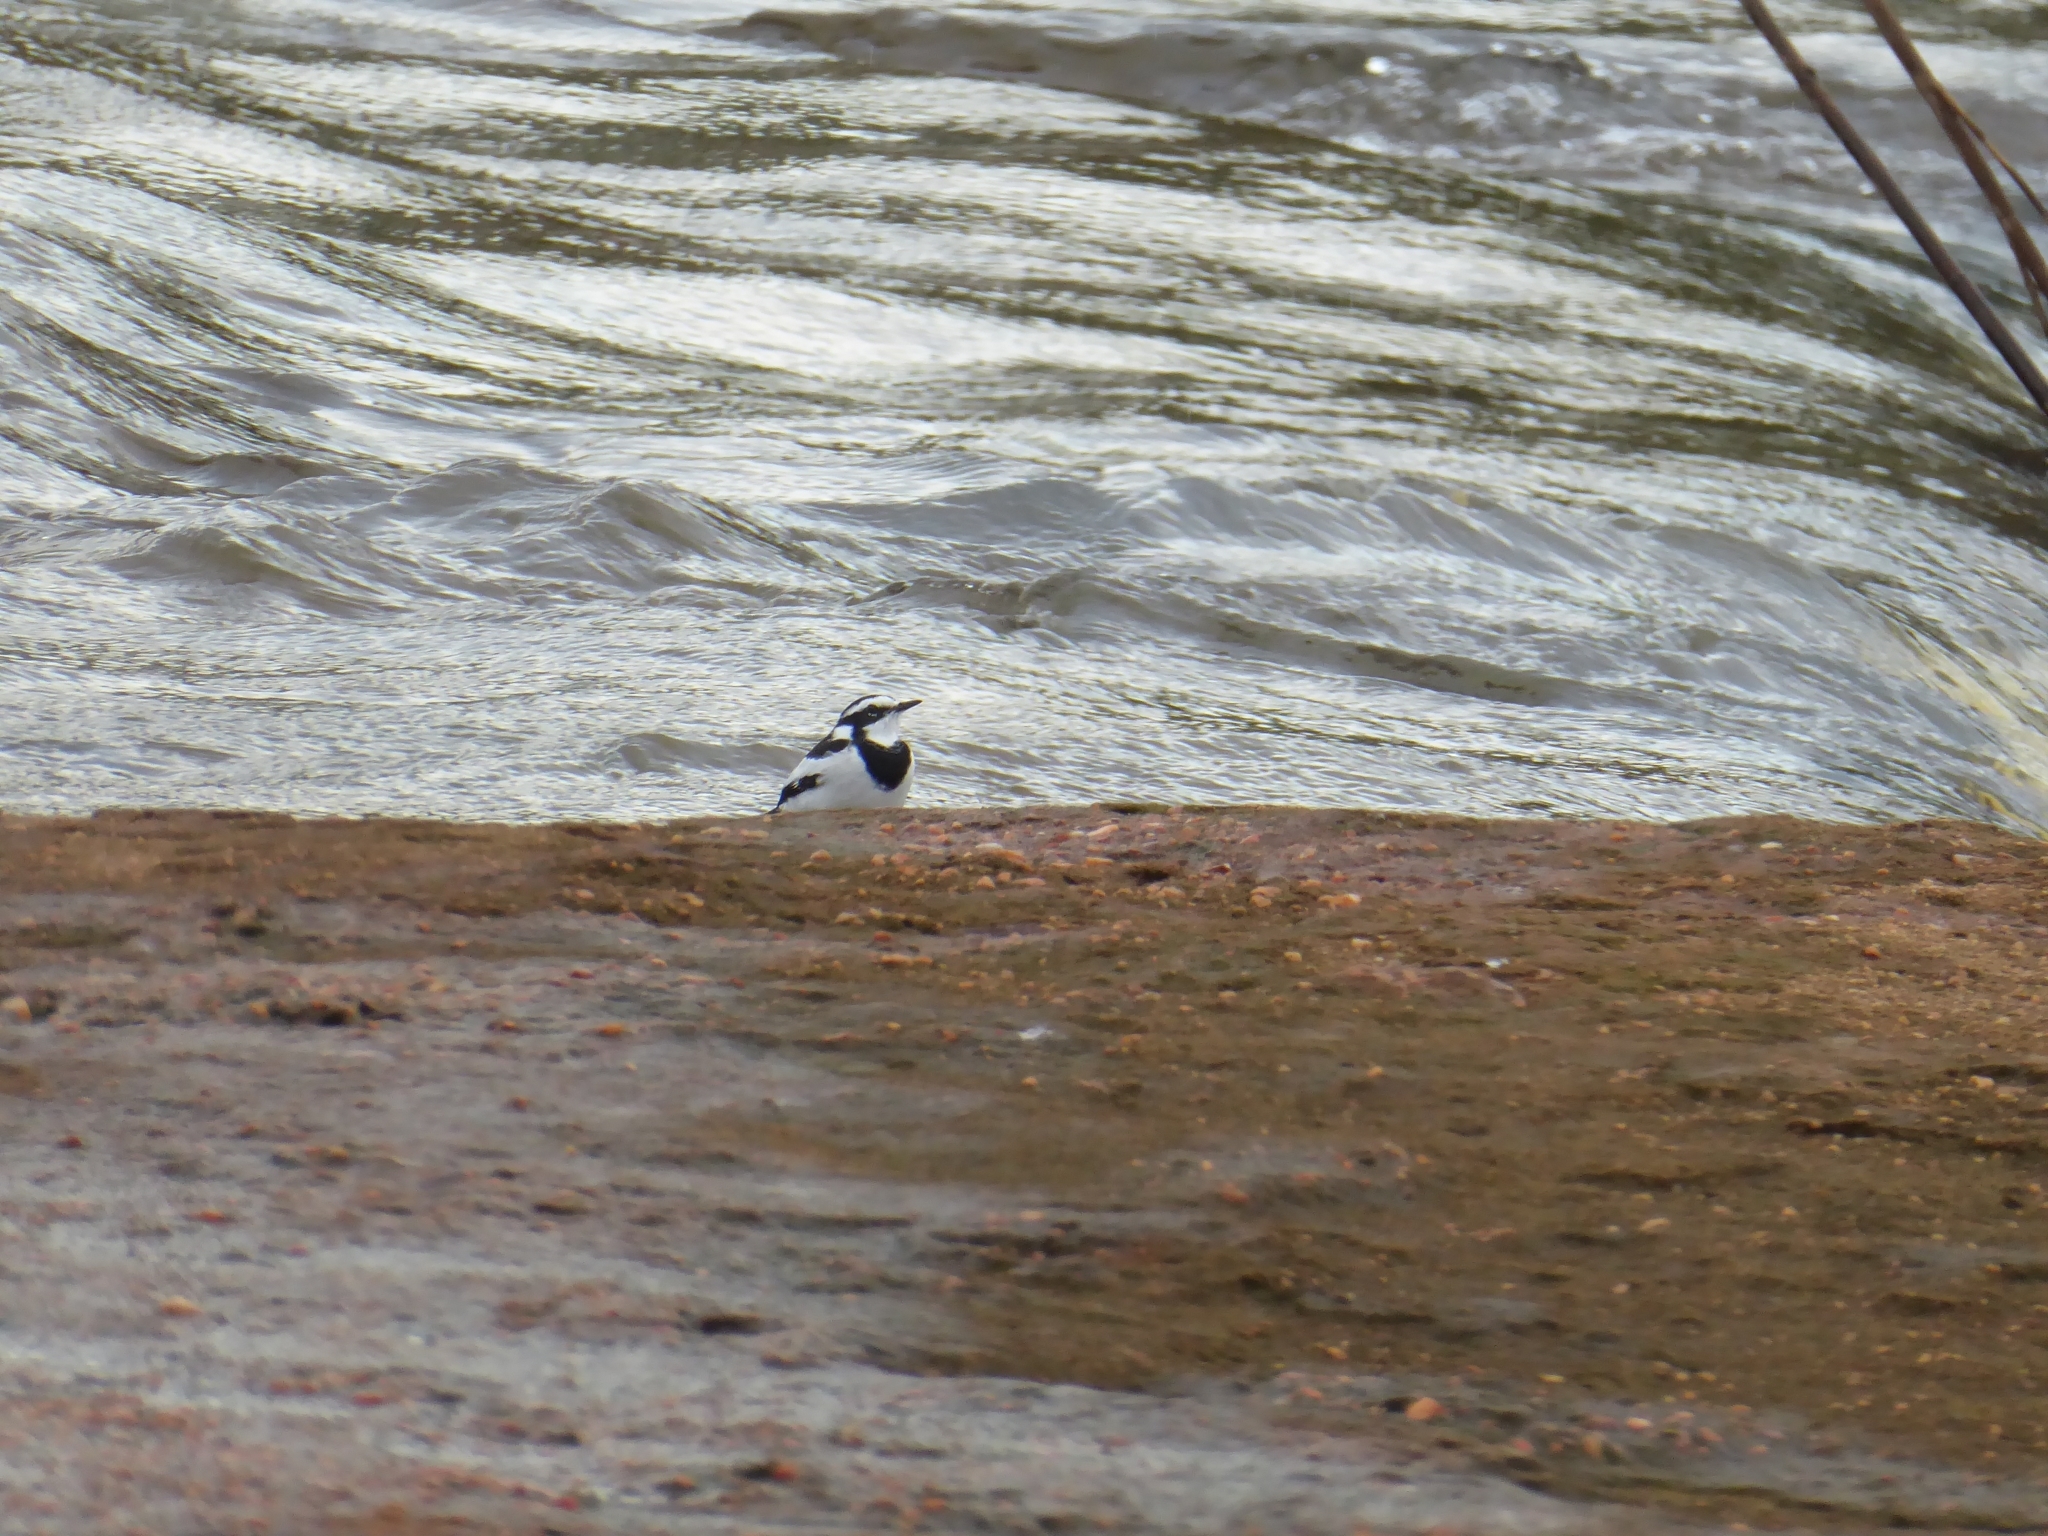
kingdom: Animalia
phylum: Chordata
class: Aves
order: Passeriformes
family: Motacillidae
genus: Motacilla
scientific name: Motacilla aguimp
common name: African pied wagtail
